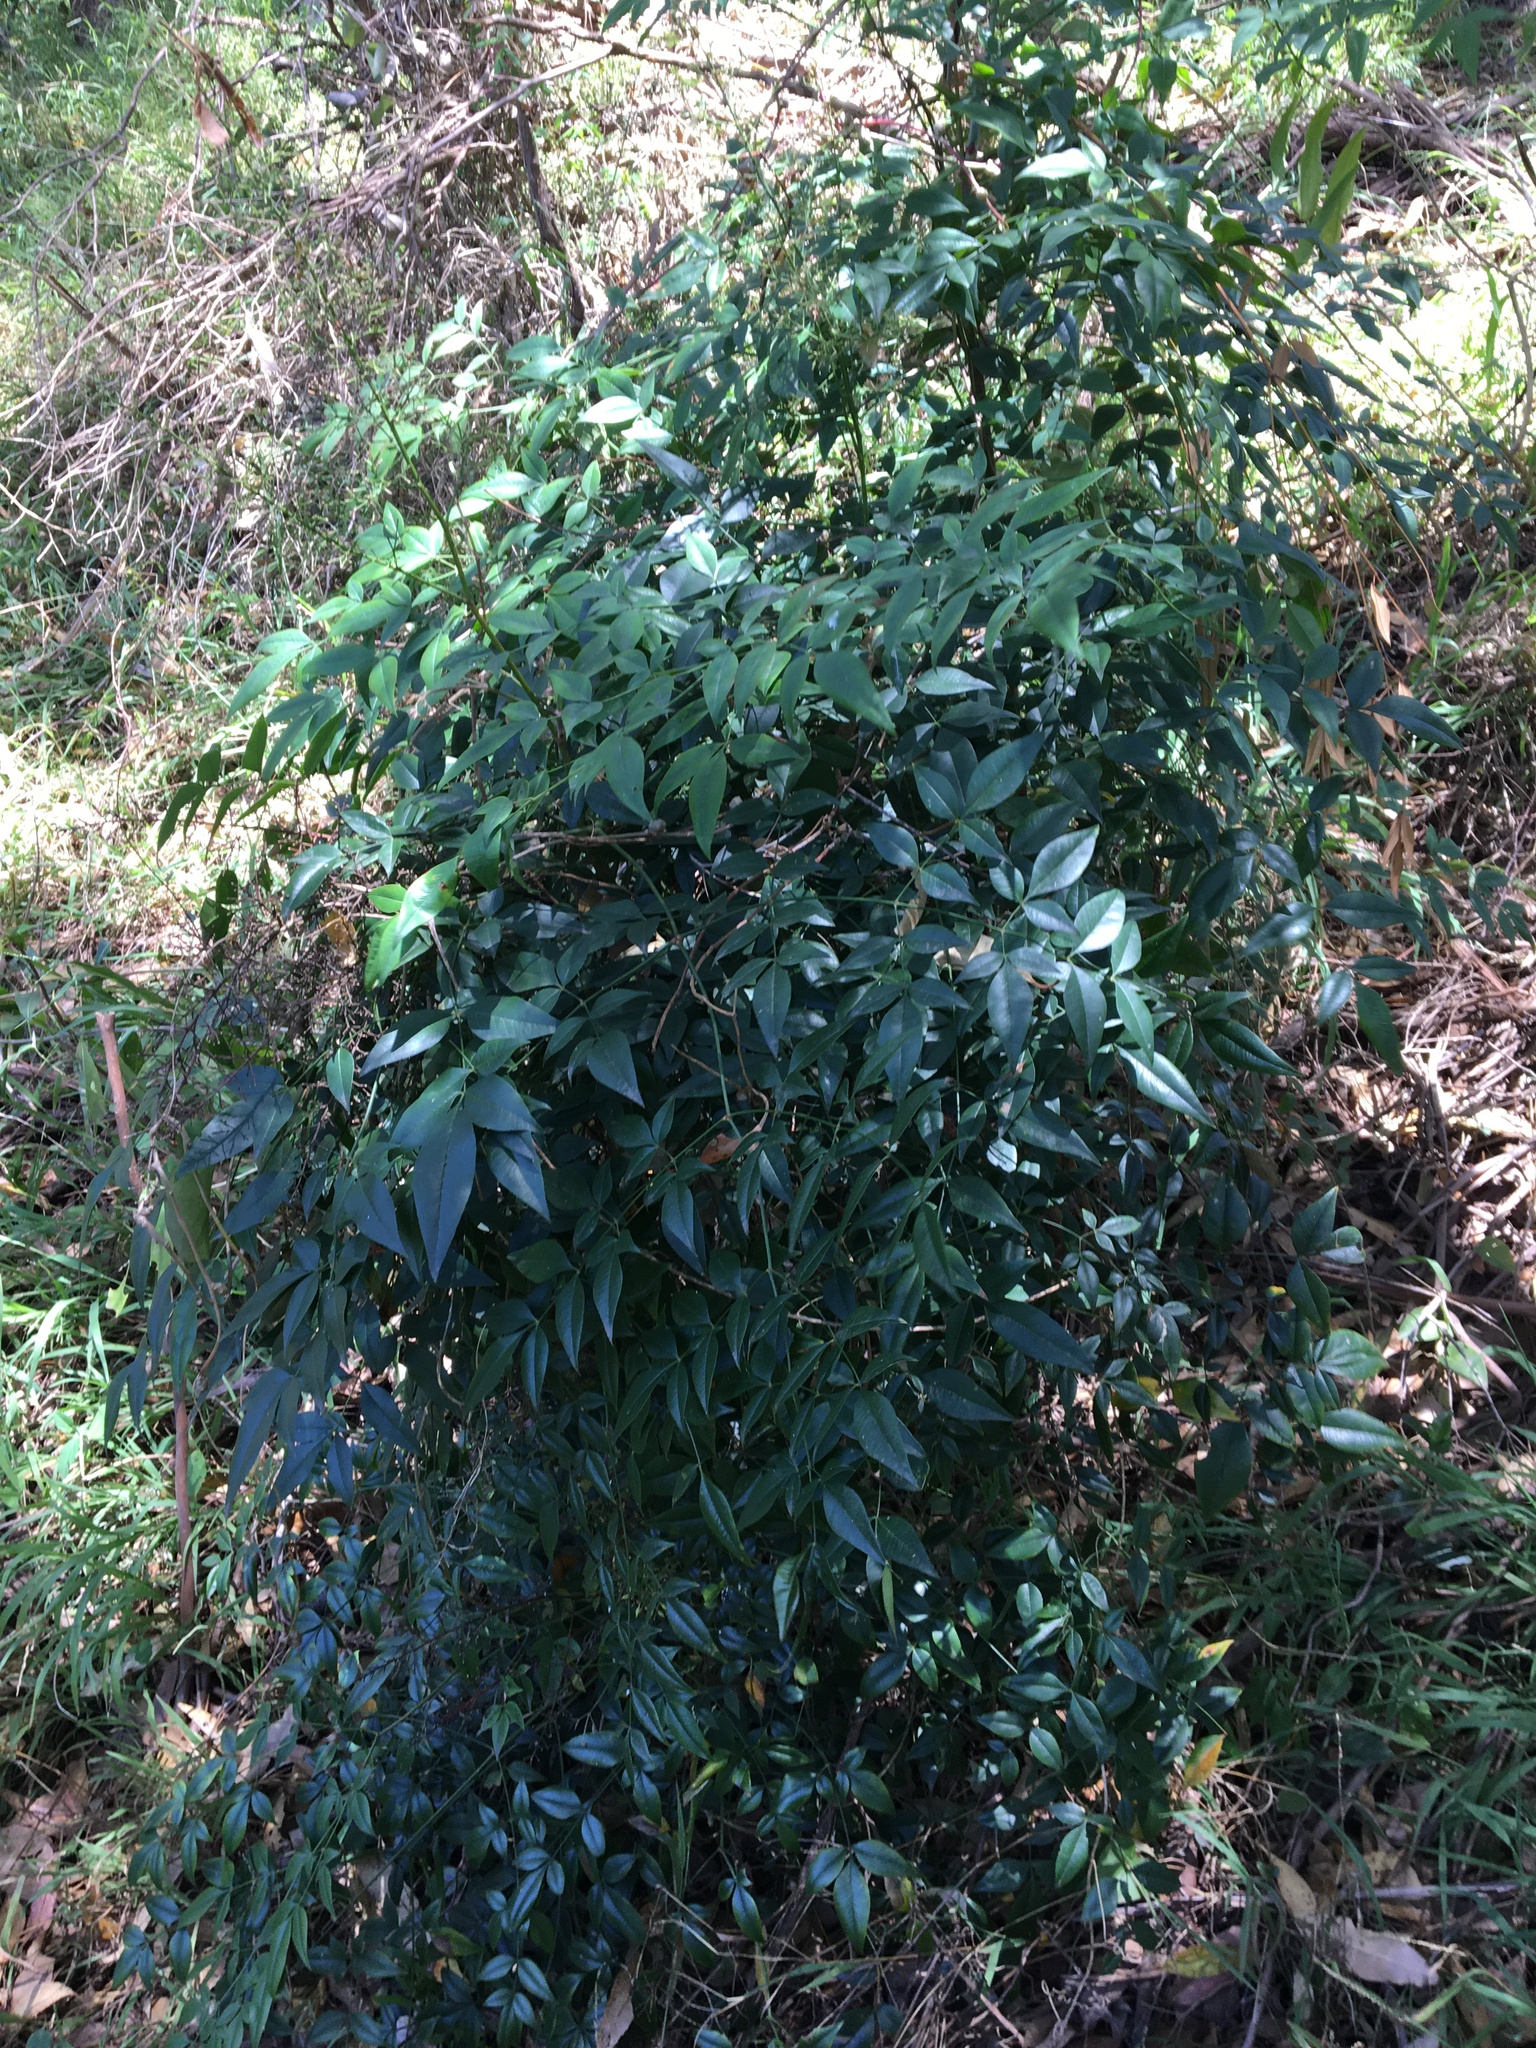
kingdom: Plantae
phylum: Tracheophyta
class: Magnoliopsida
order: Ranunculales
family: Berberidaceae
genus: Nandina
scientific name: Nandina domestica
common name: Sacred bamboo
